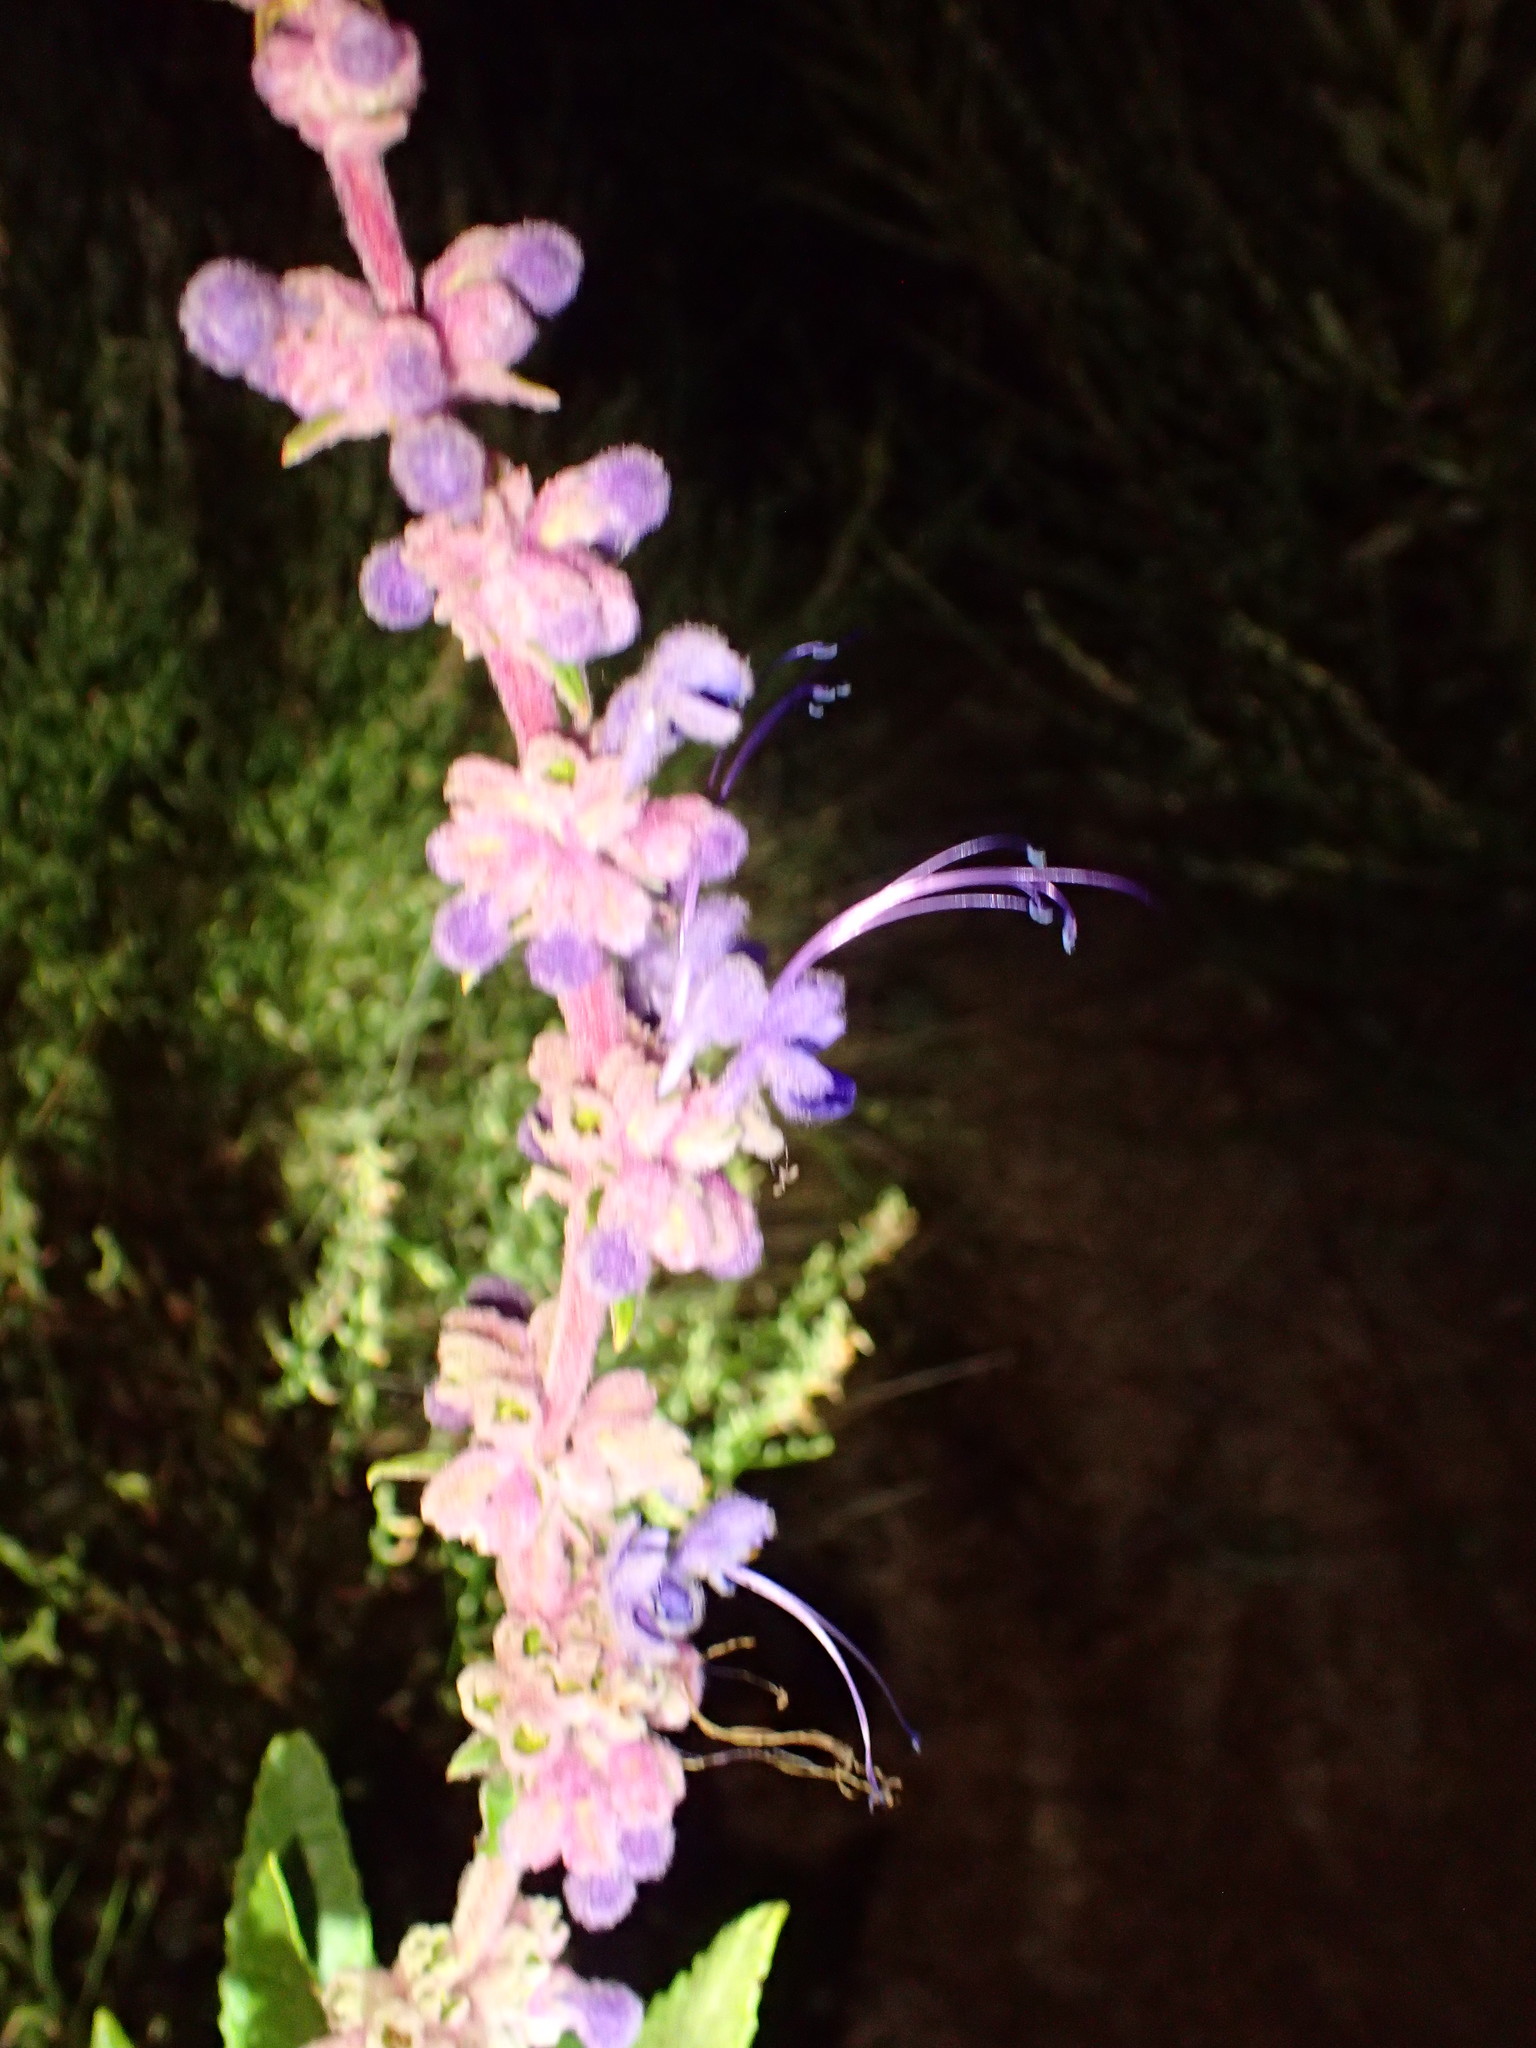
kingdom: Plantae
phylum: Tracheophyta
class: Magnoliopsida
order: Lamiales
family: Lamiaceae
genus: Trichostema
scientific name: Trichostema lanatum
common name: Woolly bluecurls
